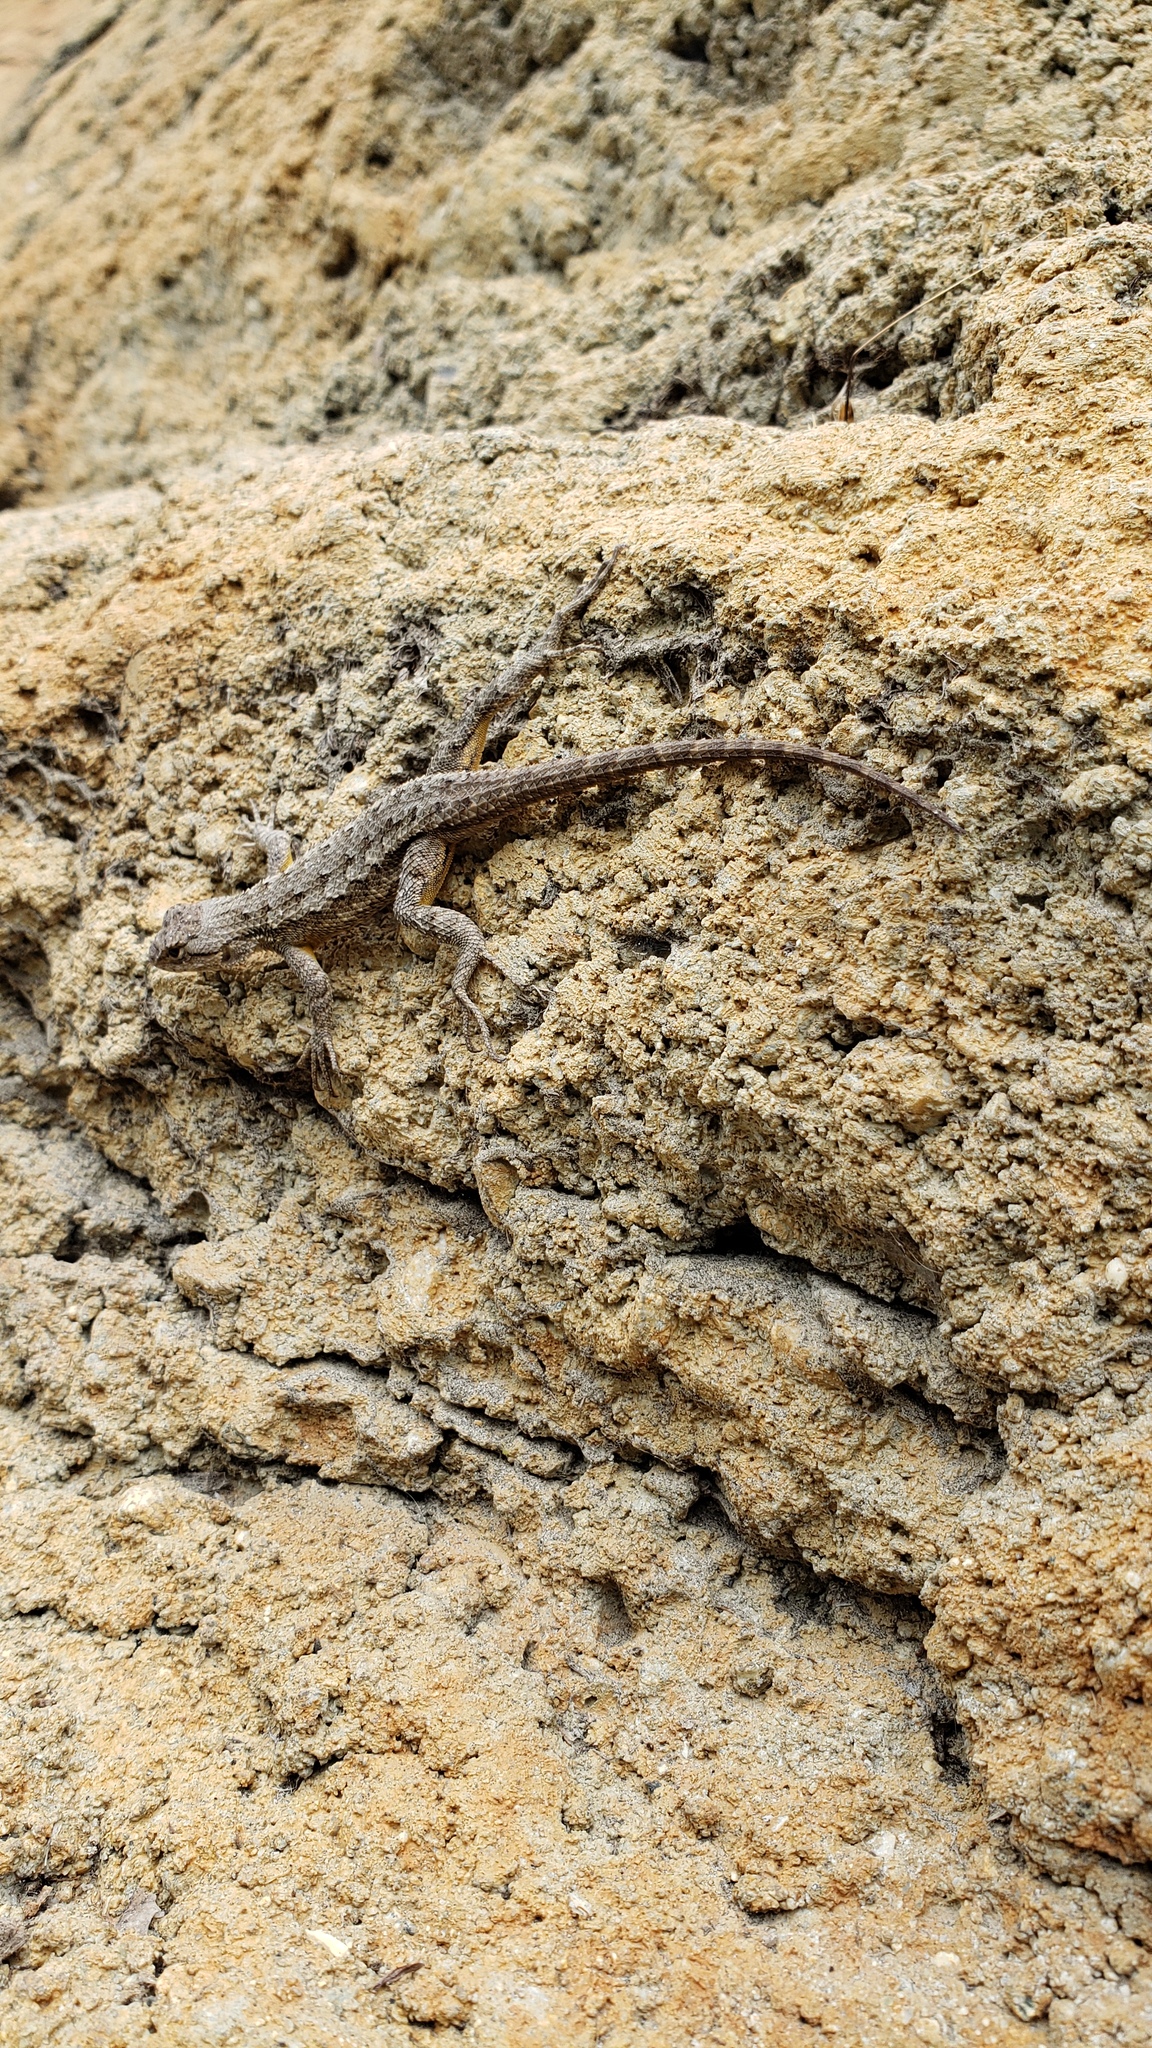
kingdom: Animalia
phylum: Chordata
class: Squamata
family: Phrynosomatidae
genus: Sceloporus
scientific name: Sceloporus occidentalis
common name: Western fence lizard
